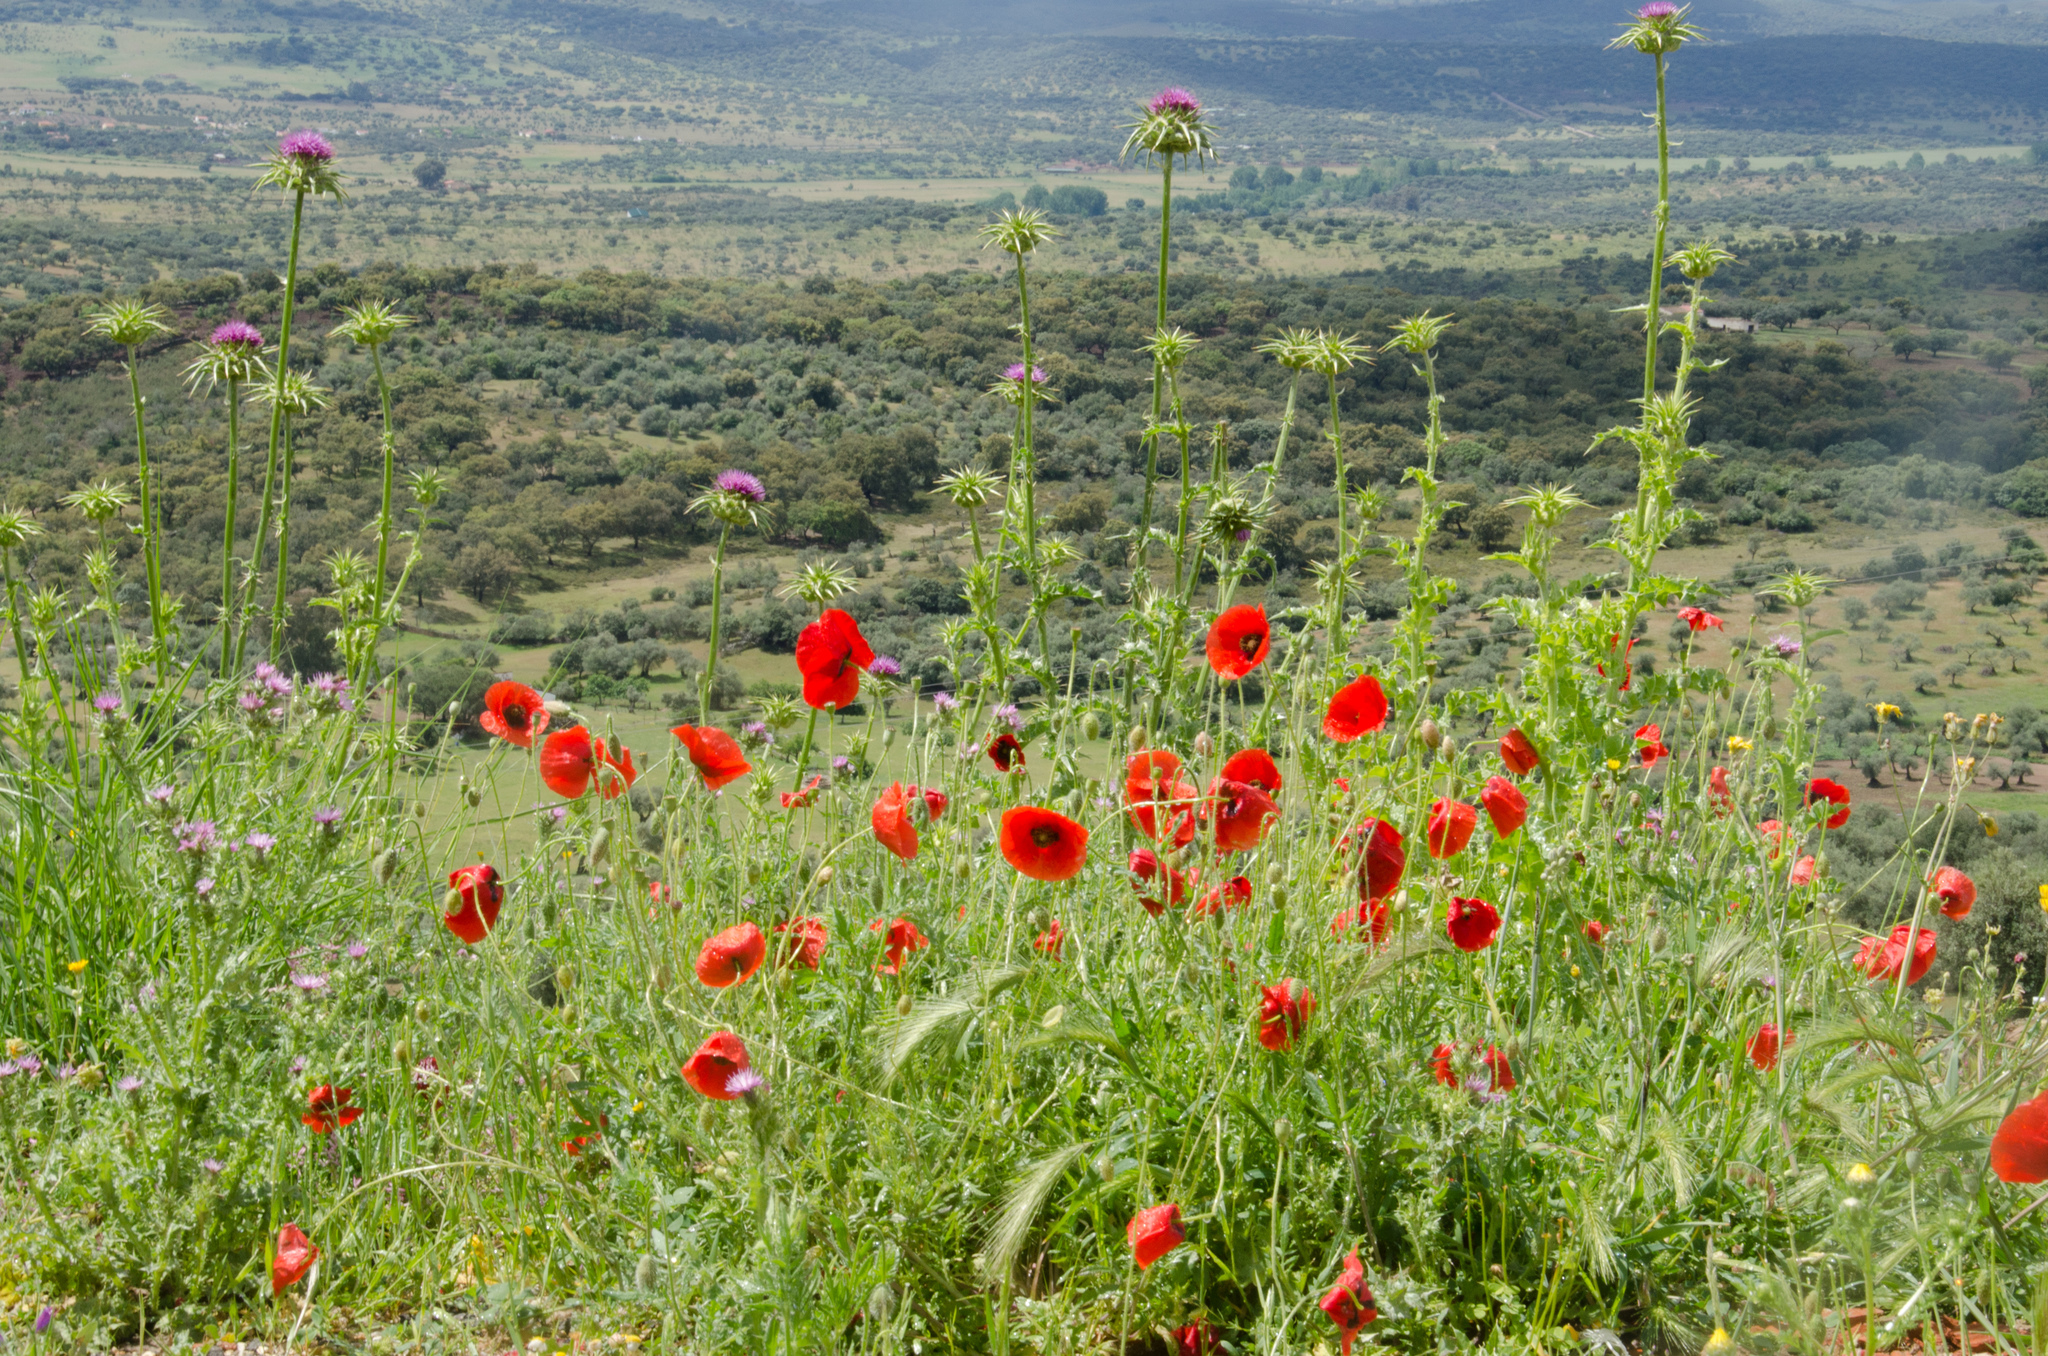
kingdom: Plantae
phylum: Tracheophyta
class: Magnoliopsida
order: Ranunculales
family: Papaveraceae
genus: Papaver
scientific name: Papaver rhoeas
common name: Corn poppy
